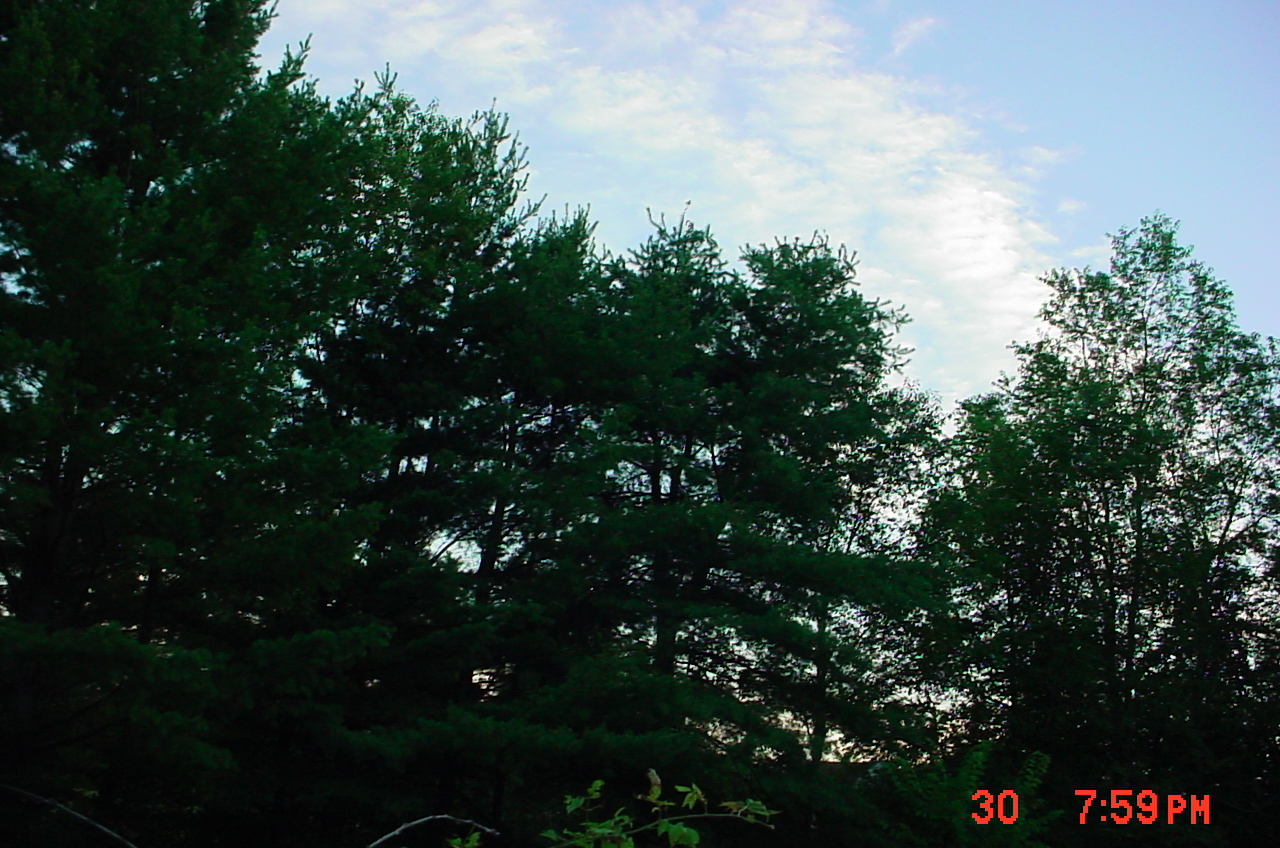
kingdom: Plantae
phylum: Tracheophyta
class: Pinopsida
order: Pinales
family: Pinaceae
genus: Pinus
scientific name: Pinus strobus
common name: Weymouth pine
